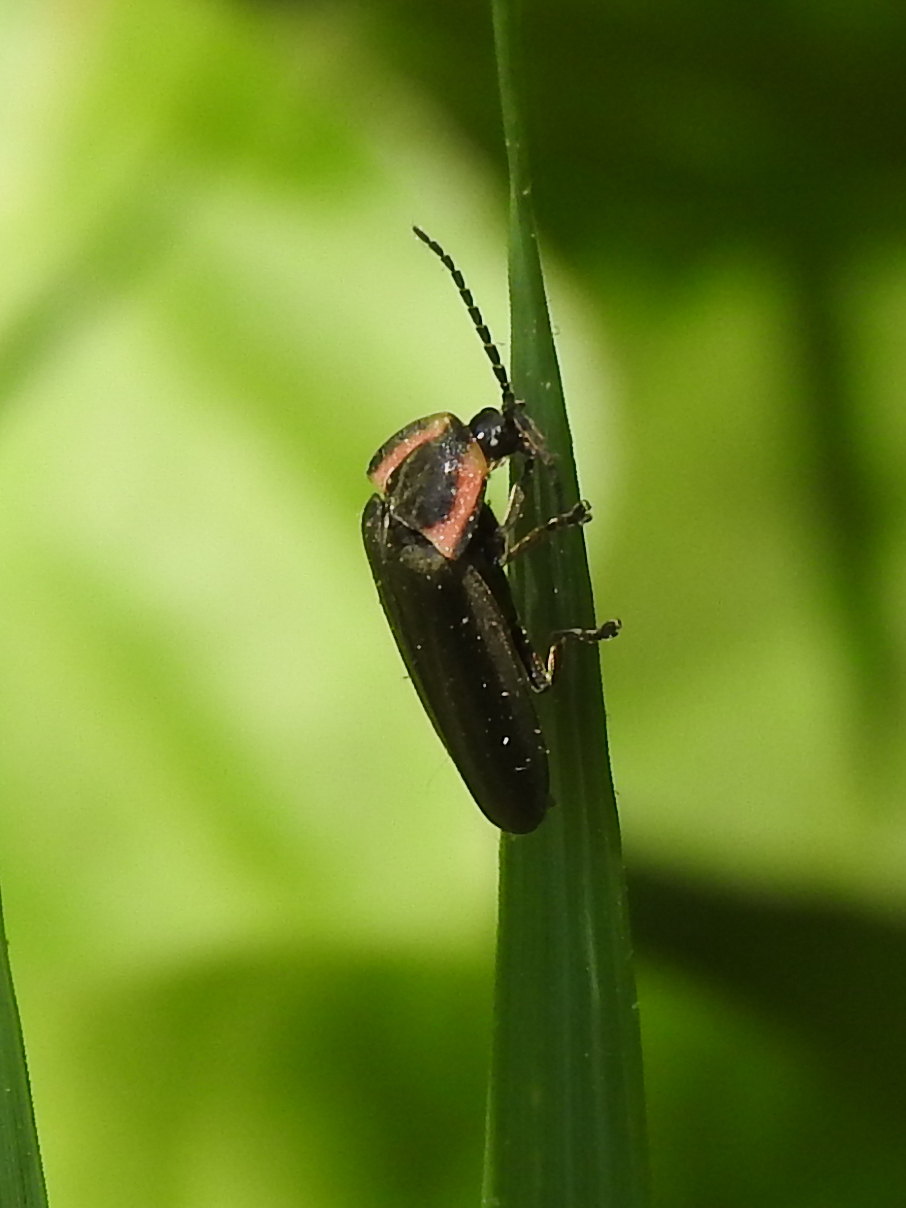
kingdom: Animalia
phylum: Arthropoda
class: Insecta
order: Coleoptera
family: Lampyridae
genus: Photinus
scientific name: Photinus corrusca
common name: Winter firefly
